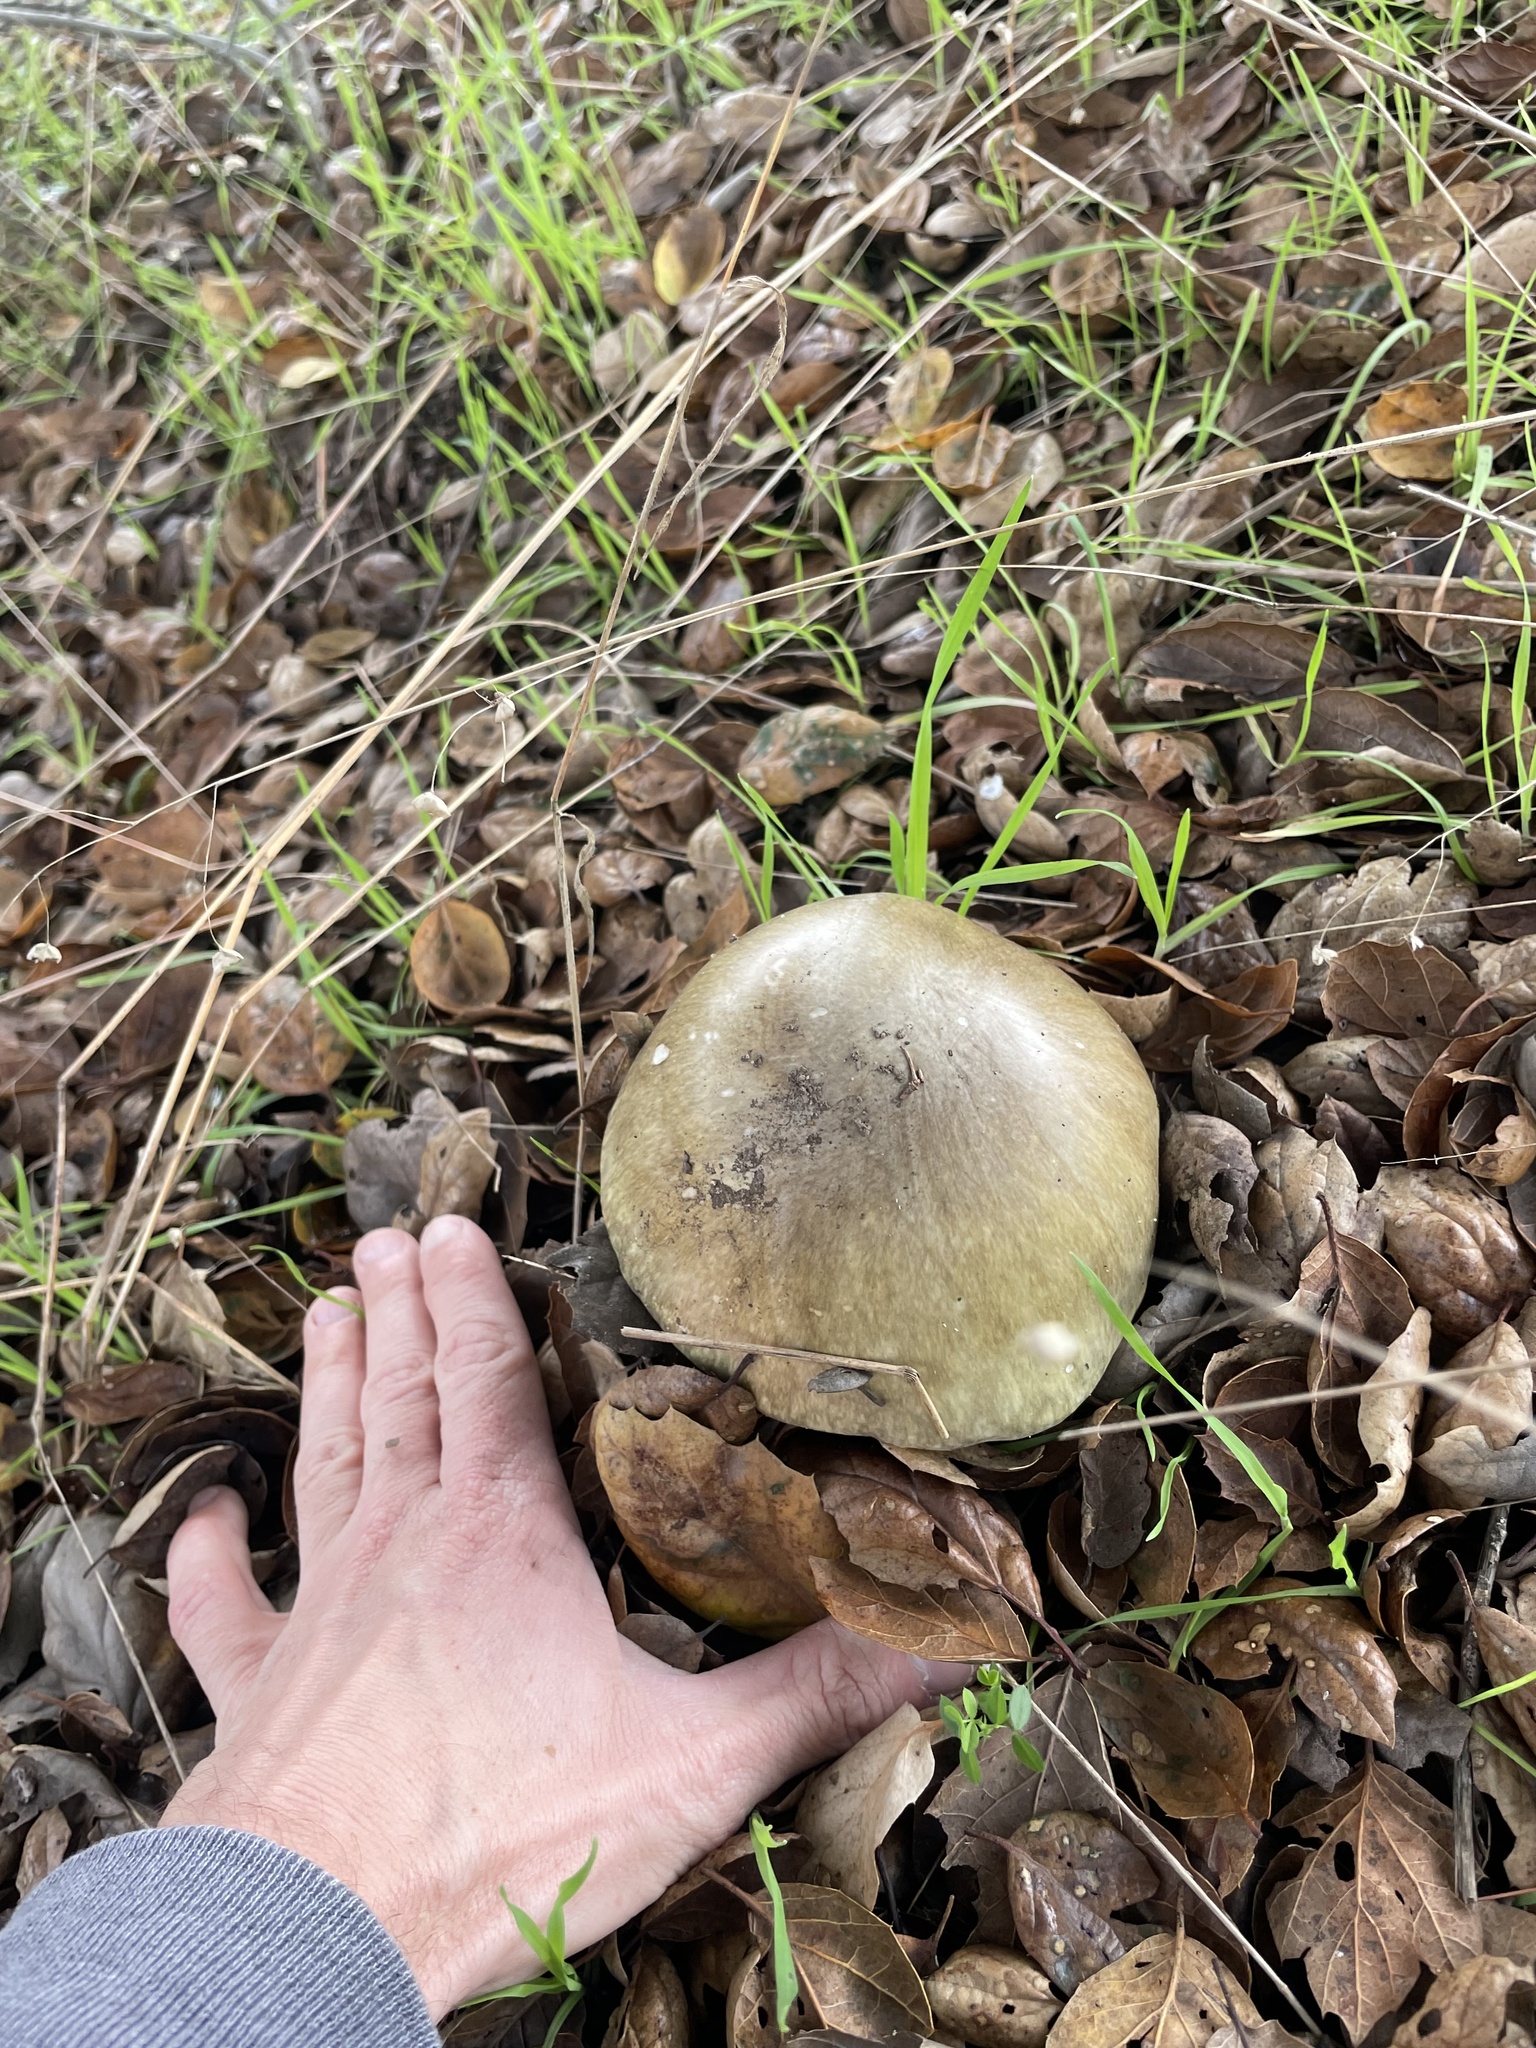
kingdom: Fungi
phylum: Basidiomycota
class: Agaricomycetes
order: Agaricales
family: Amanitaceae
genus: Amanita
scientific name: Amanita phalloides
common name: Death cap
